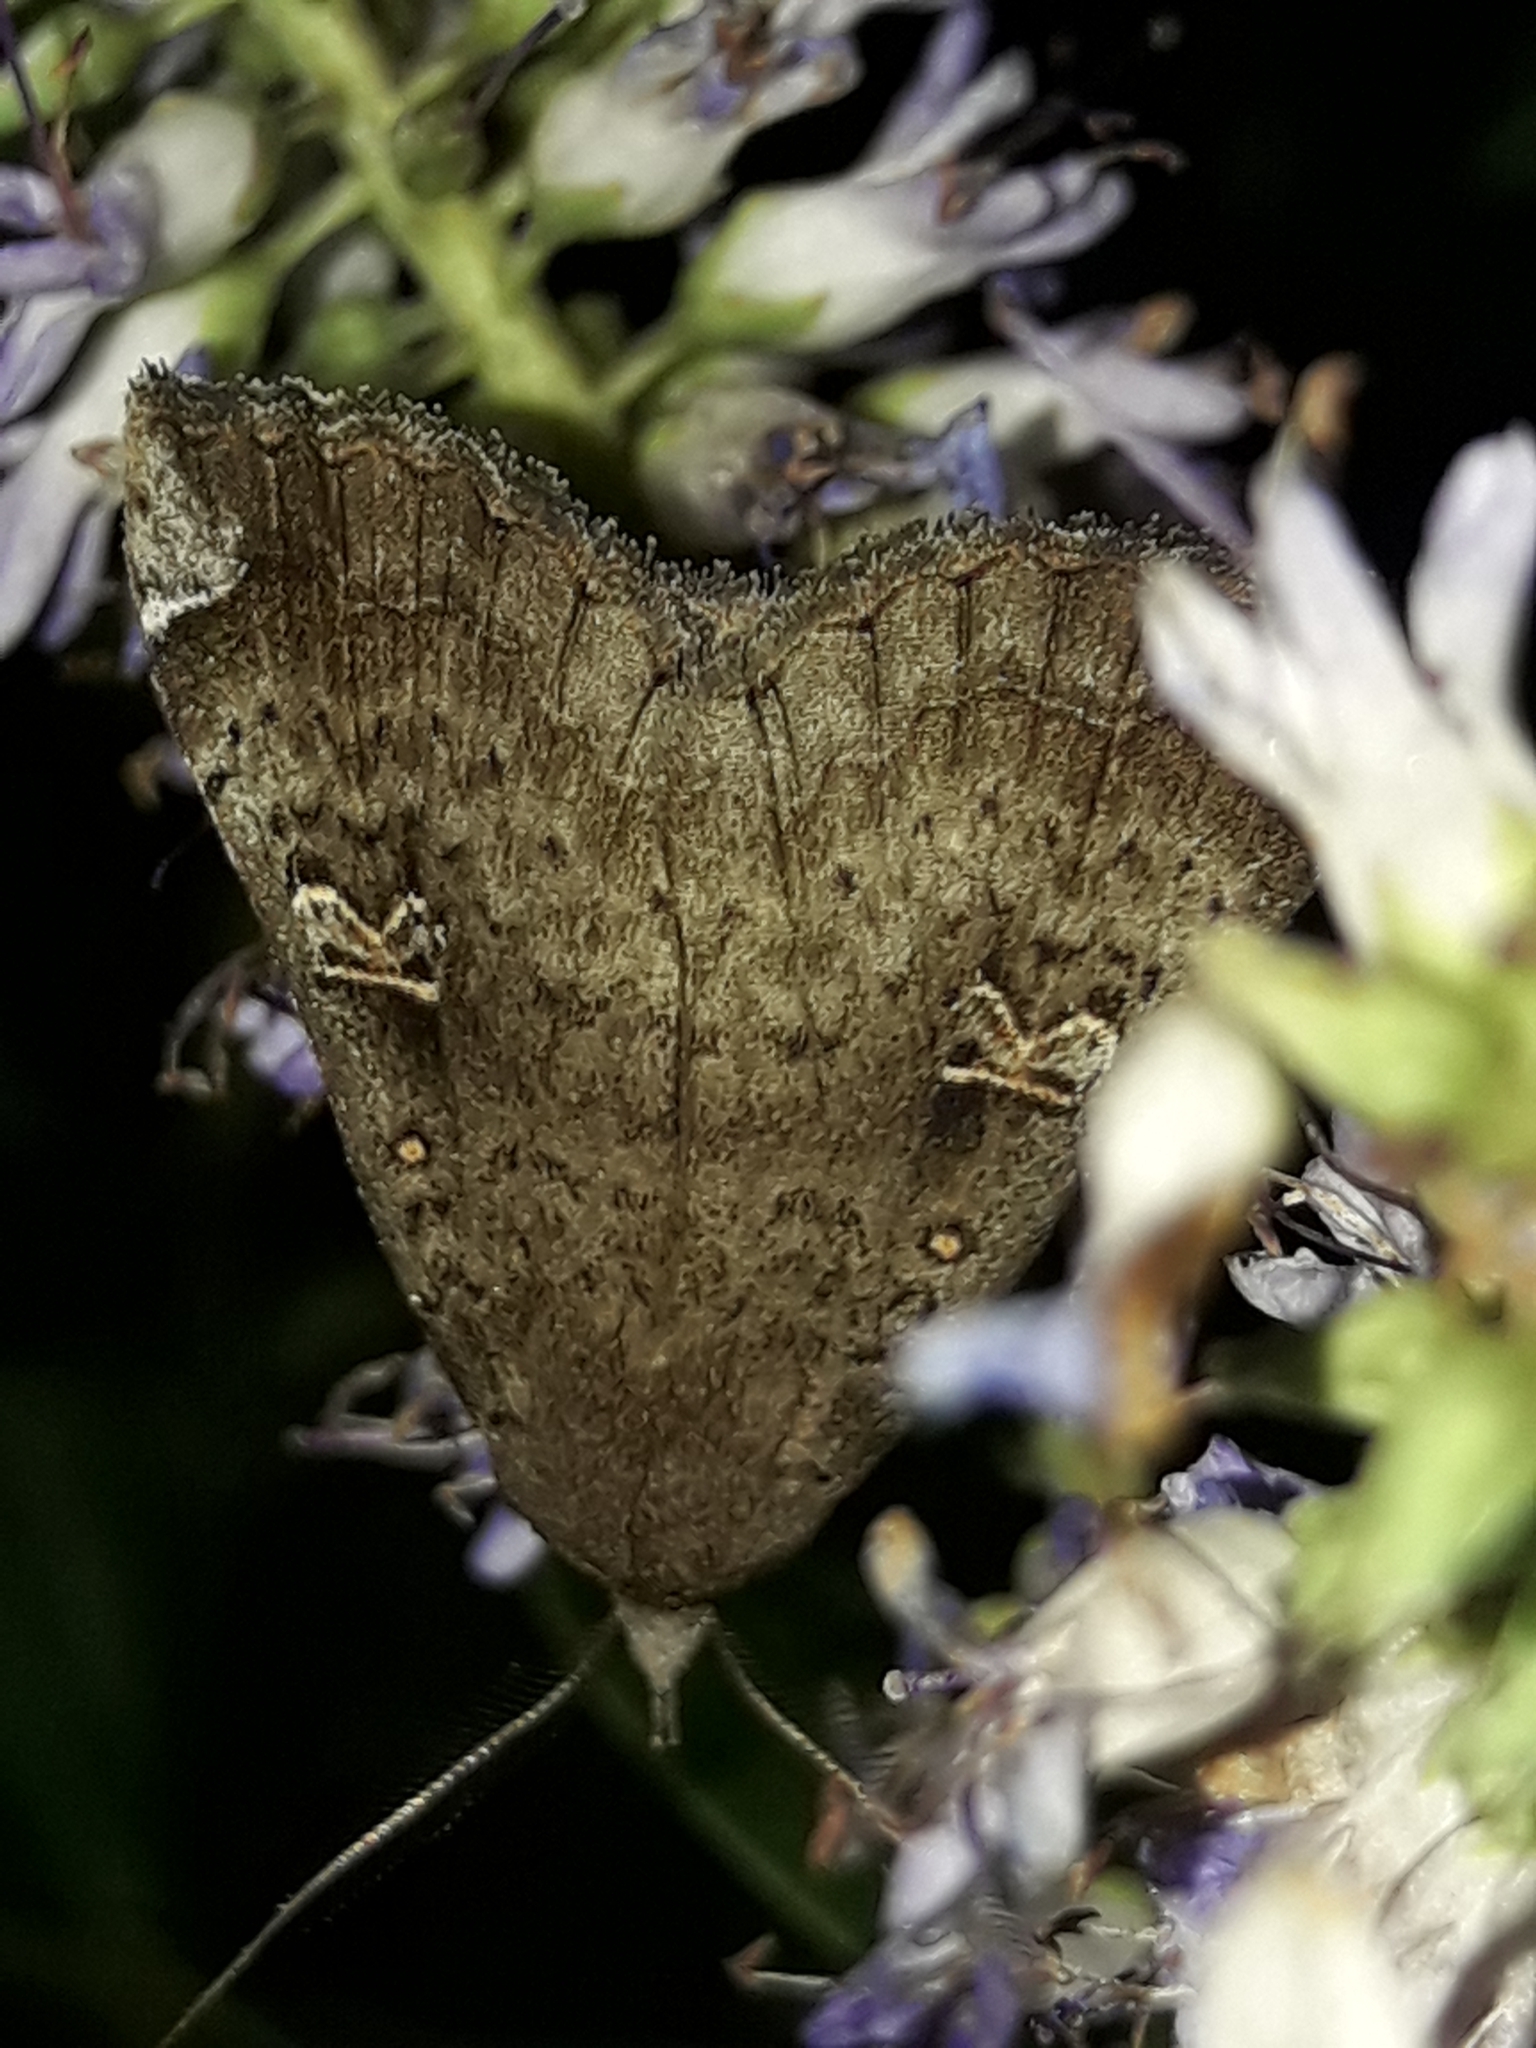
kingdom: Animalia
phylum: Arthropoda
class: Insecta
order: Lepidoptera
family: Erebidae
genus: Rhapsa
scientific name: Rhapsa scotosialis
